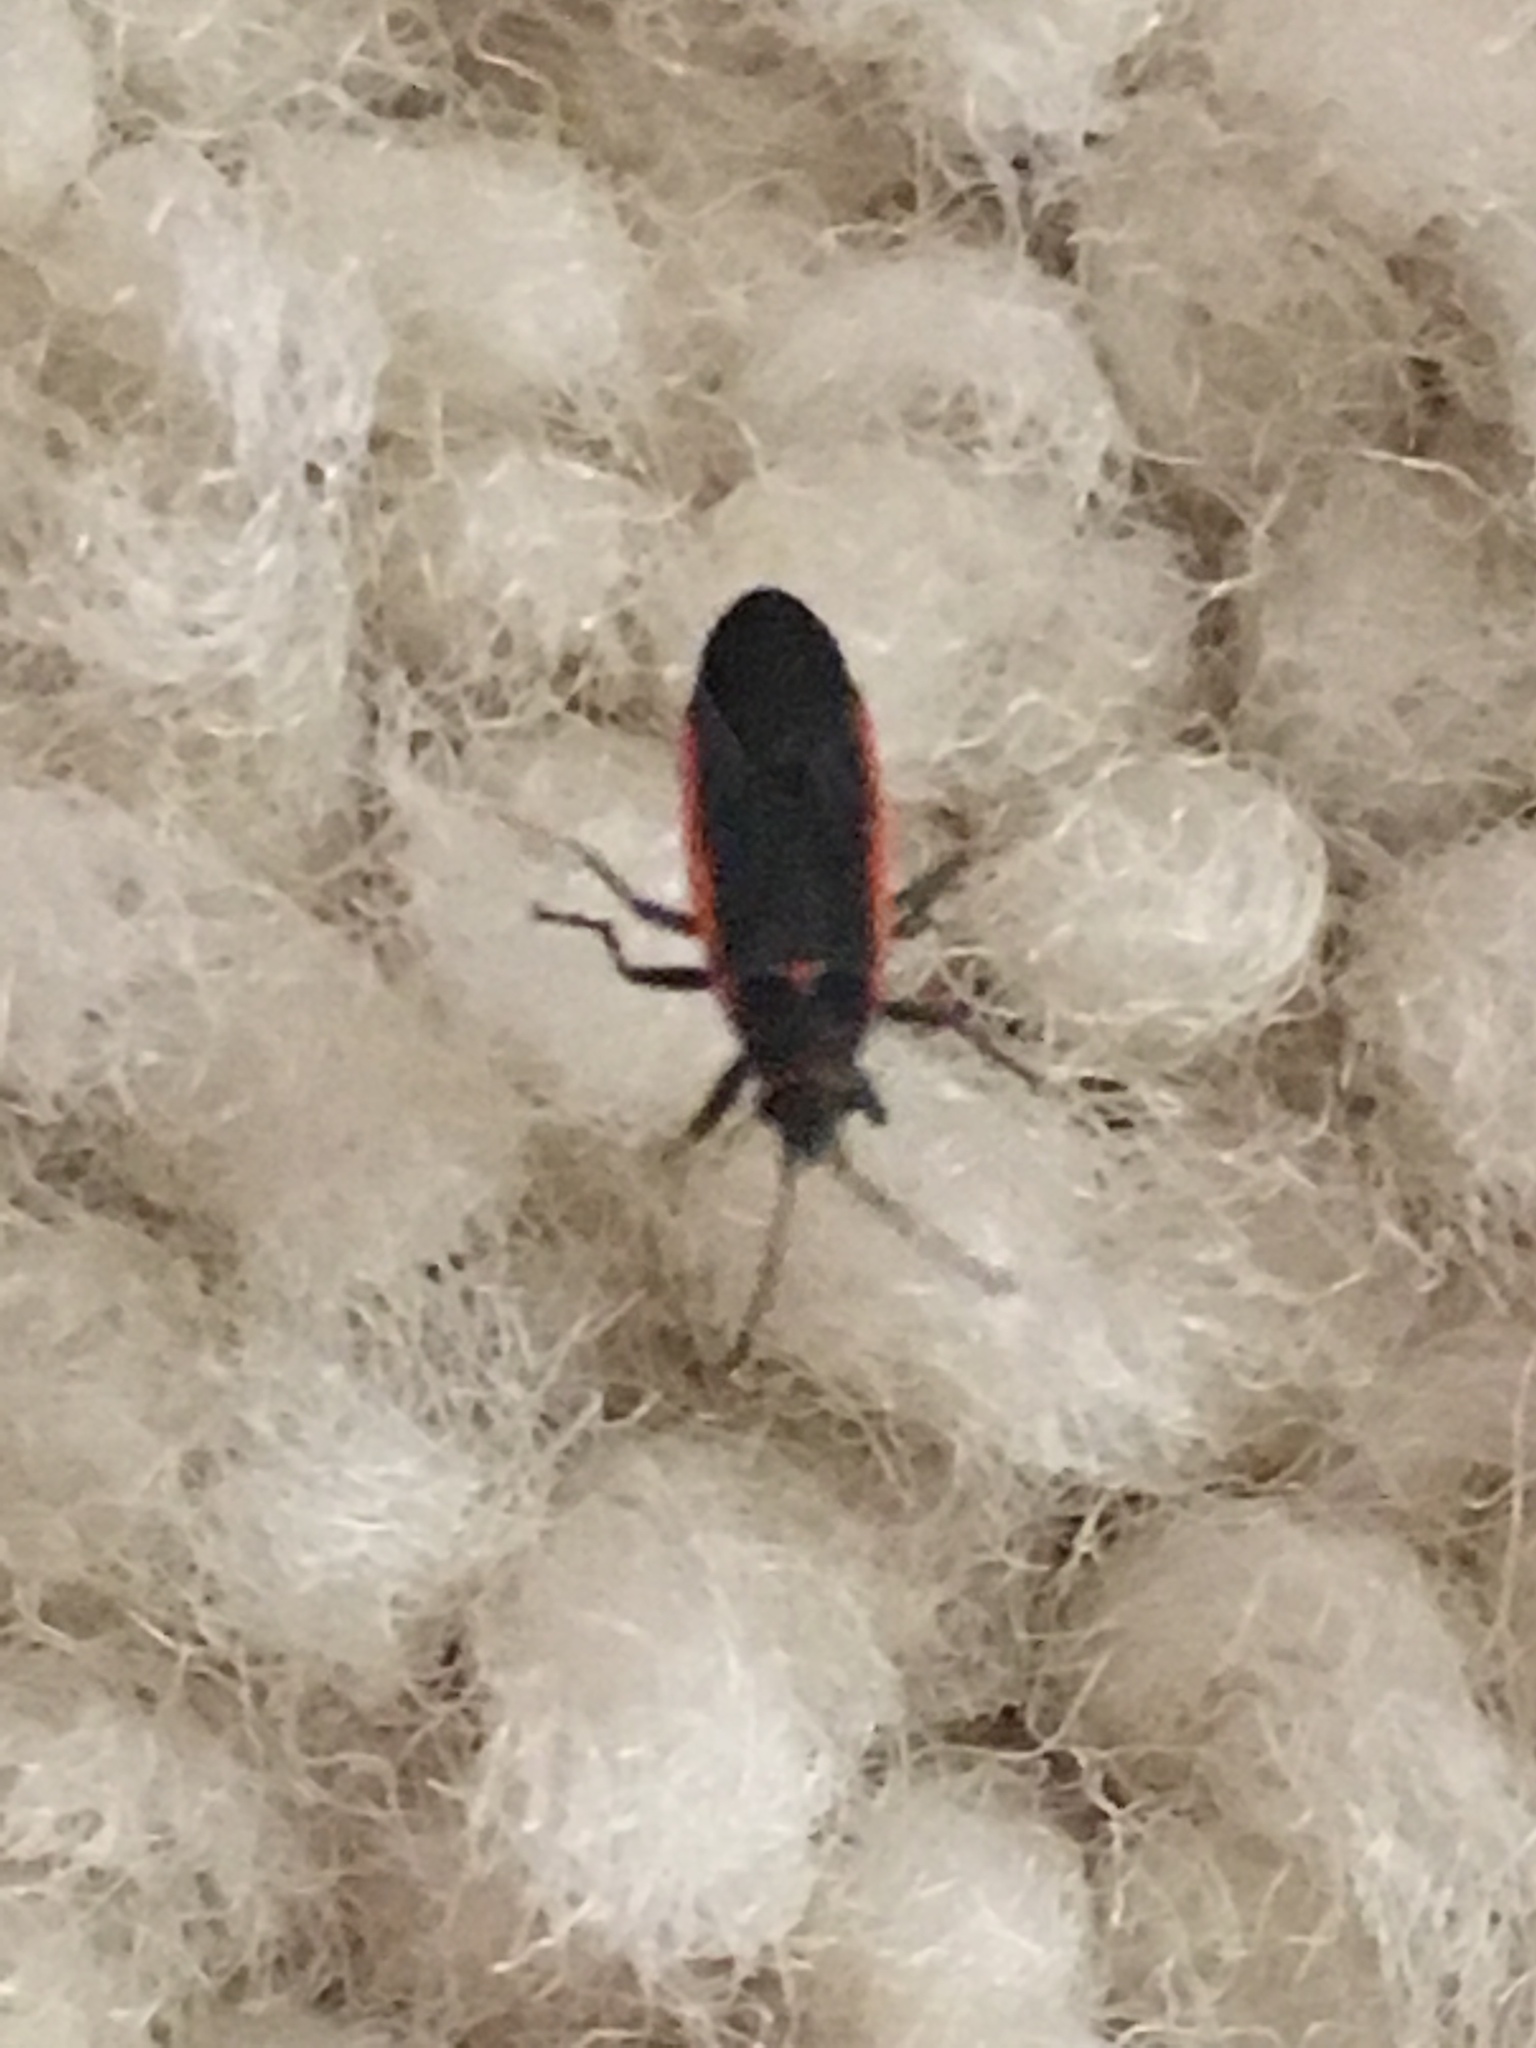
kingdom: Animalia
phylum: Arthropoda
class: Insecta
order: Hemiptera
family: Lygaeidae
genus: Melacoryphus
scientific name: Melacoryphus lateralis
